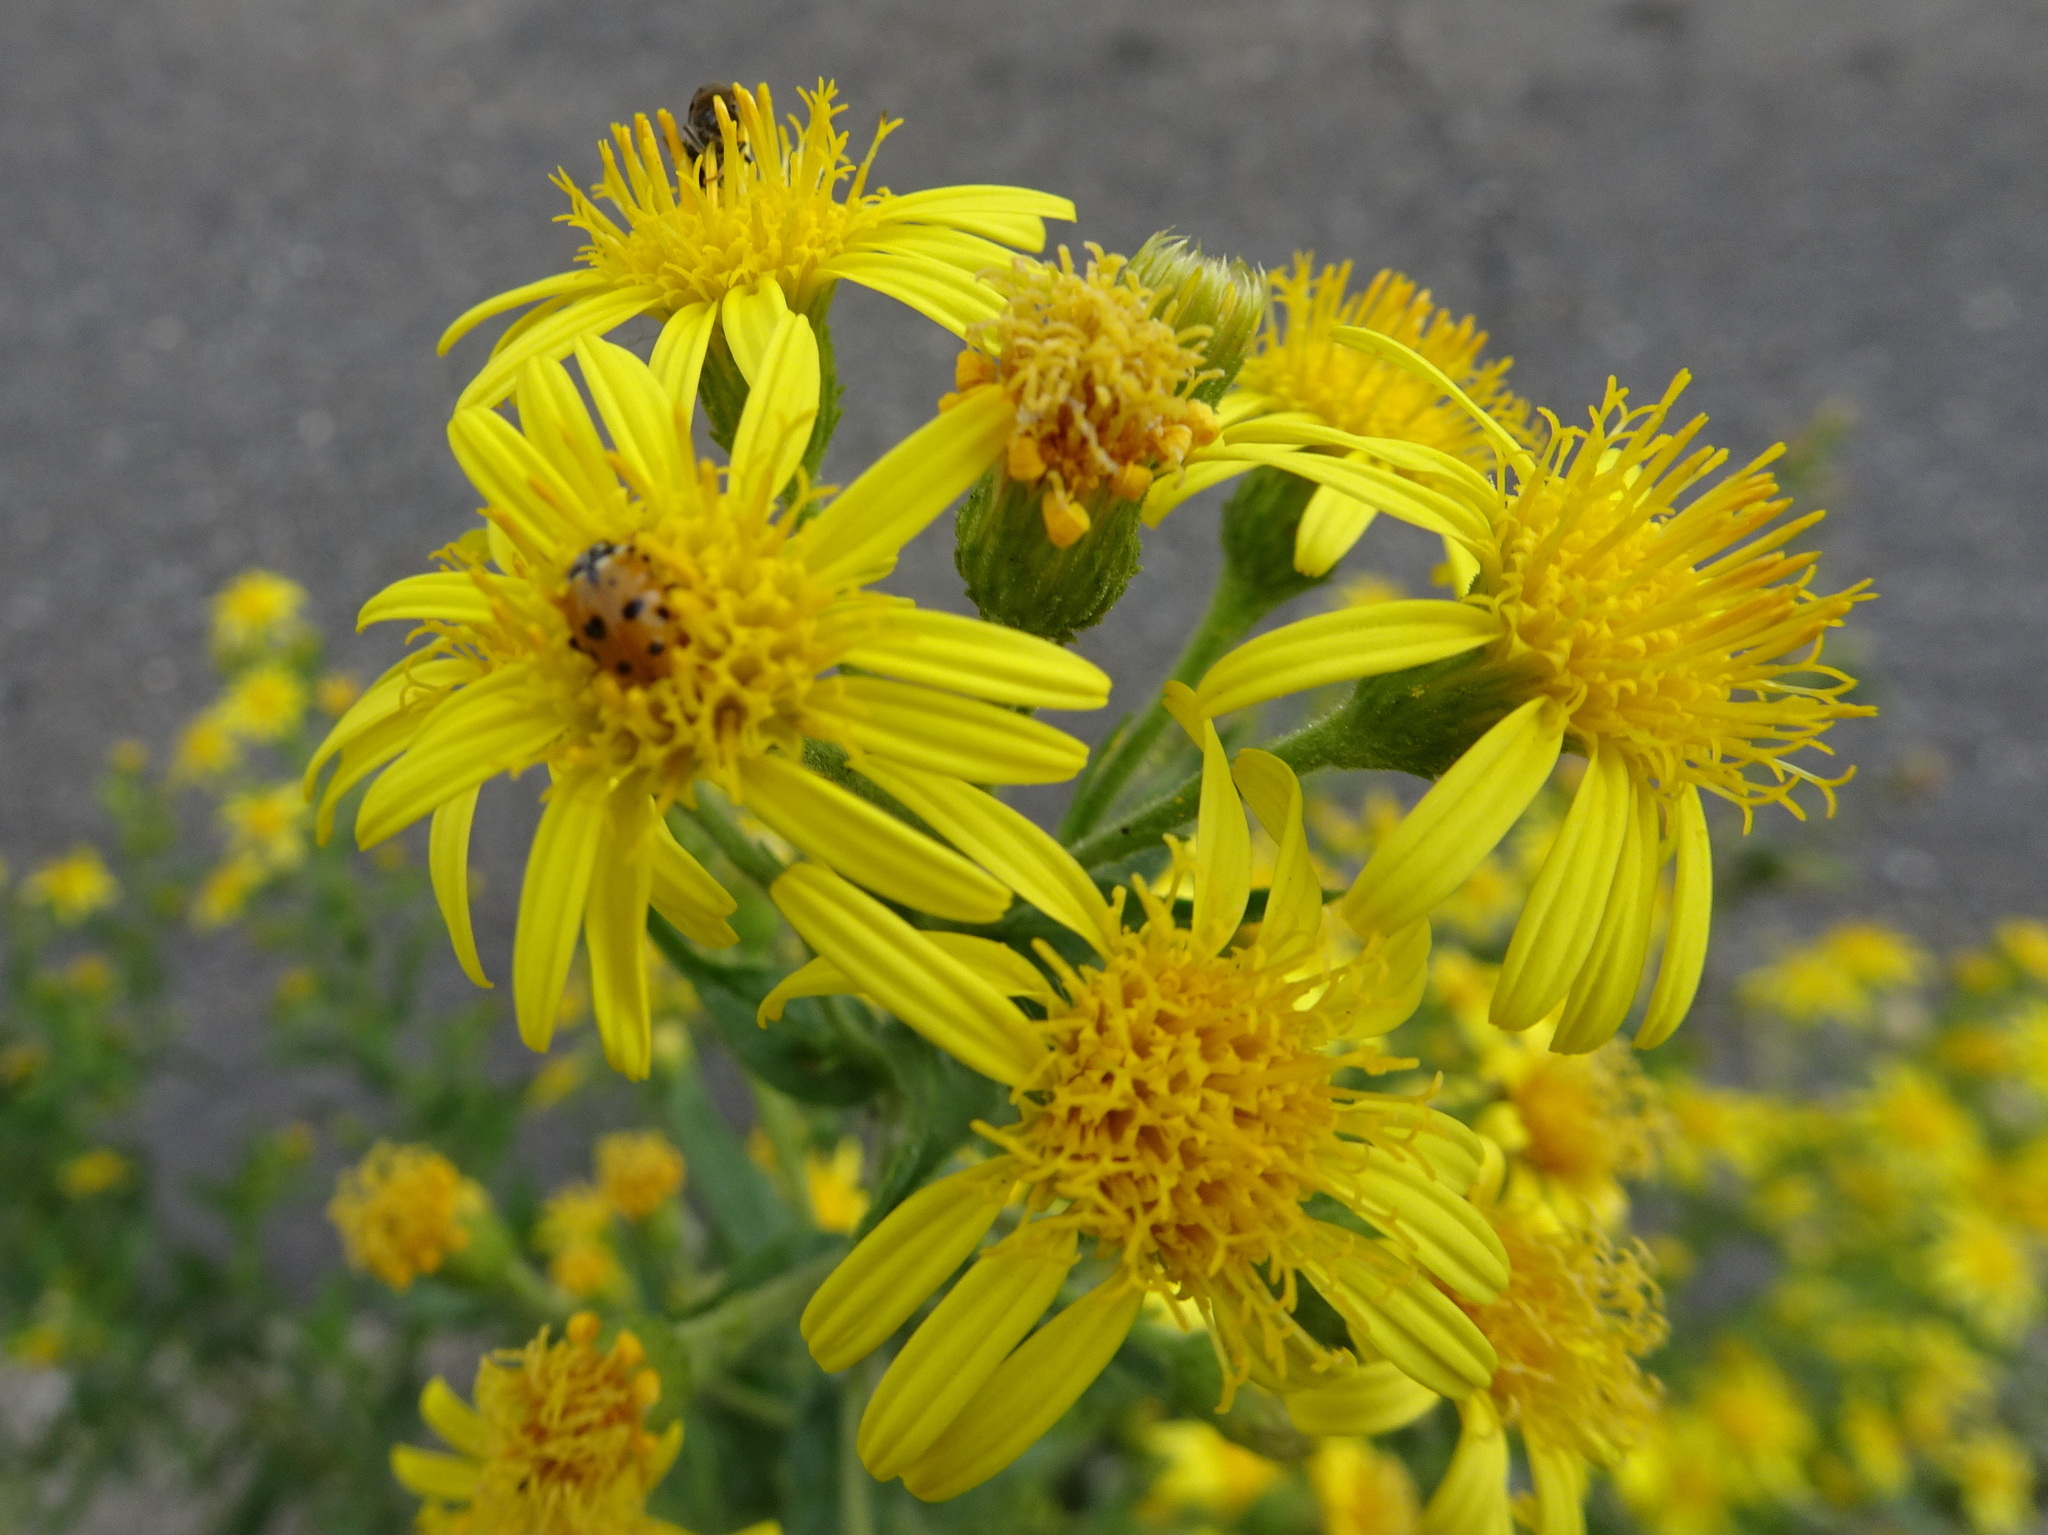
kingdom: Plantae
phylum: Tracheophyta
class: Magnoliopsida
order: Asterales
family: Asteraceae
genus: Dittrichia
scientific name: Dittrichia viscosa
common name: Woody fleabane
